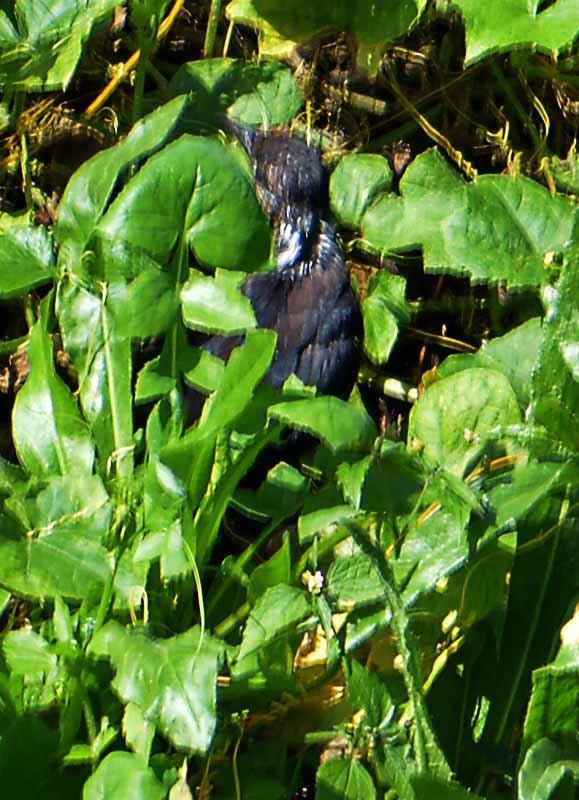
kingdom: Animalia
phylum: Chordata
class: Aves
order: Passeriformes
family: Icteridae
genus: Quiscalus
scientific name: Quiscalus mexicanus
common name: Great-tailed grackle
